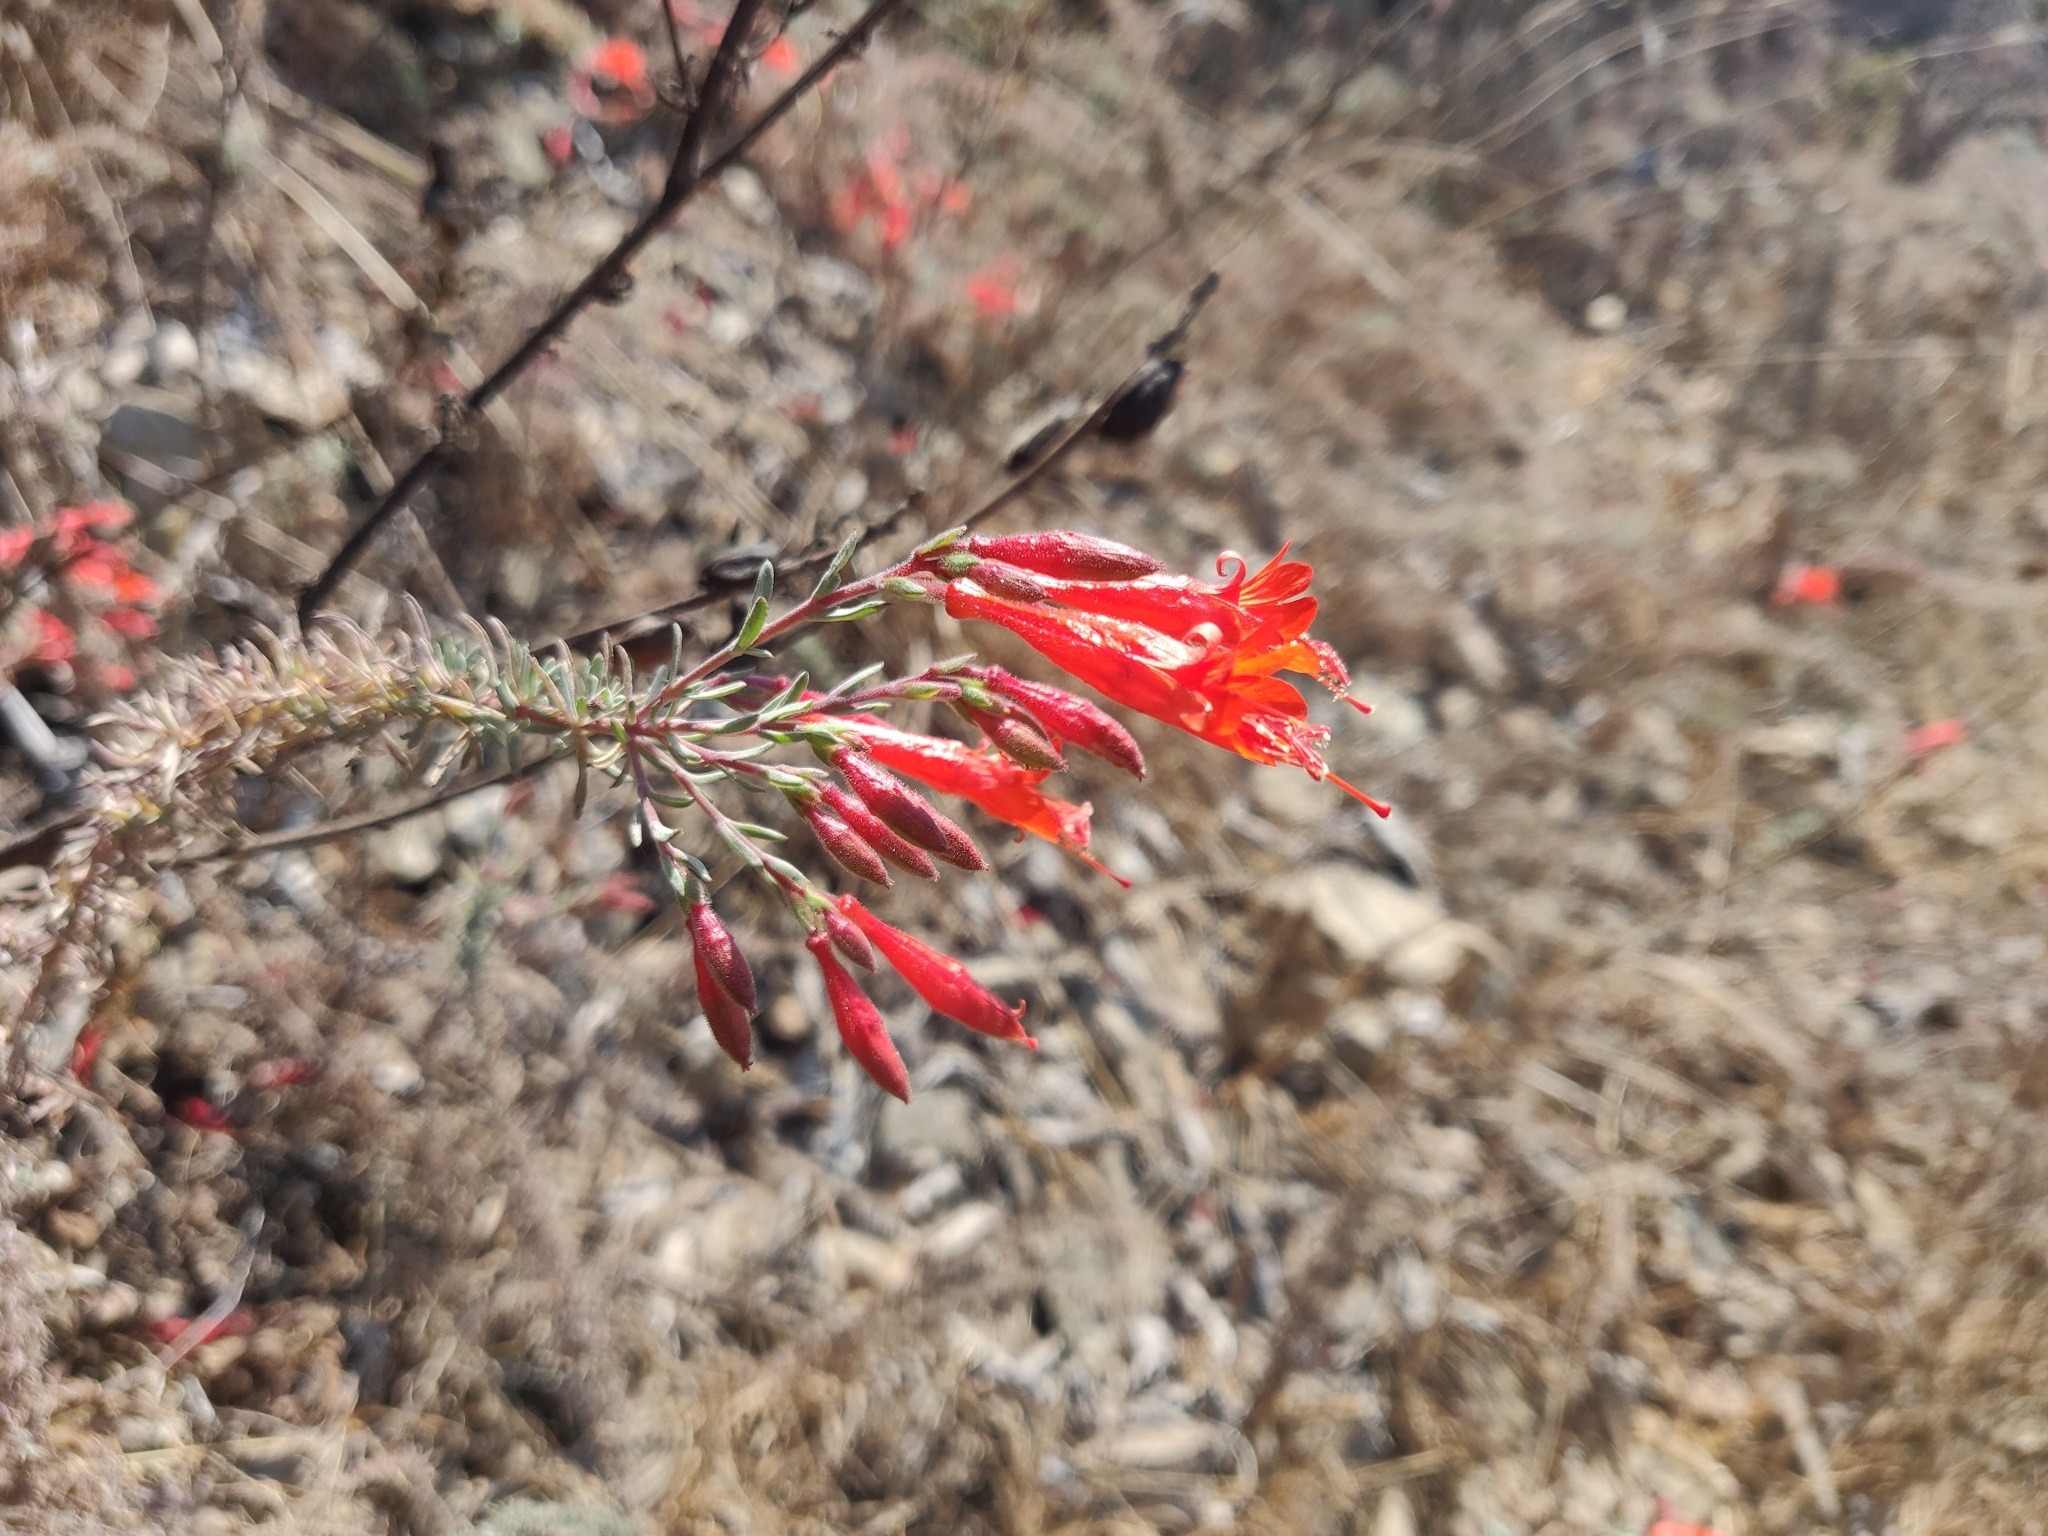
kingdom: Plantae
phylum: Tracheophyta
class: Magnoliopsida
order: Myrtales
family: Onagraceae
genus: Epilobium
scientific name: Epilobium canum
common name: California-fuchsia
